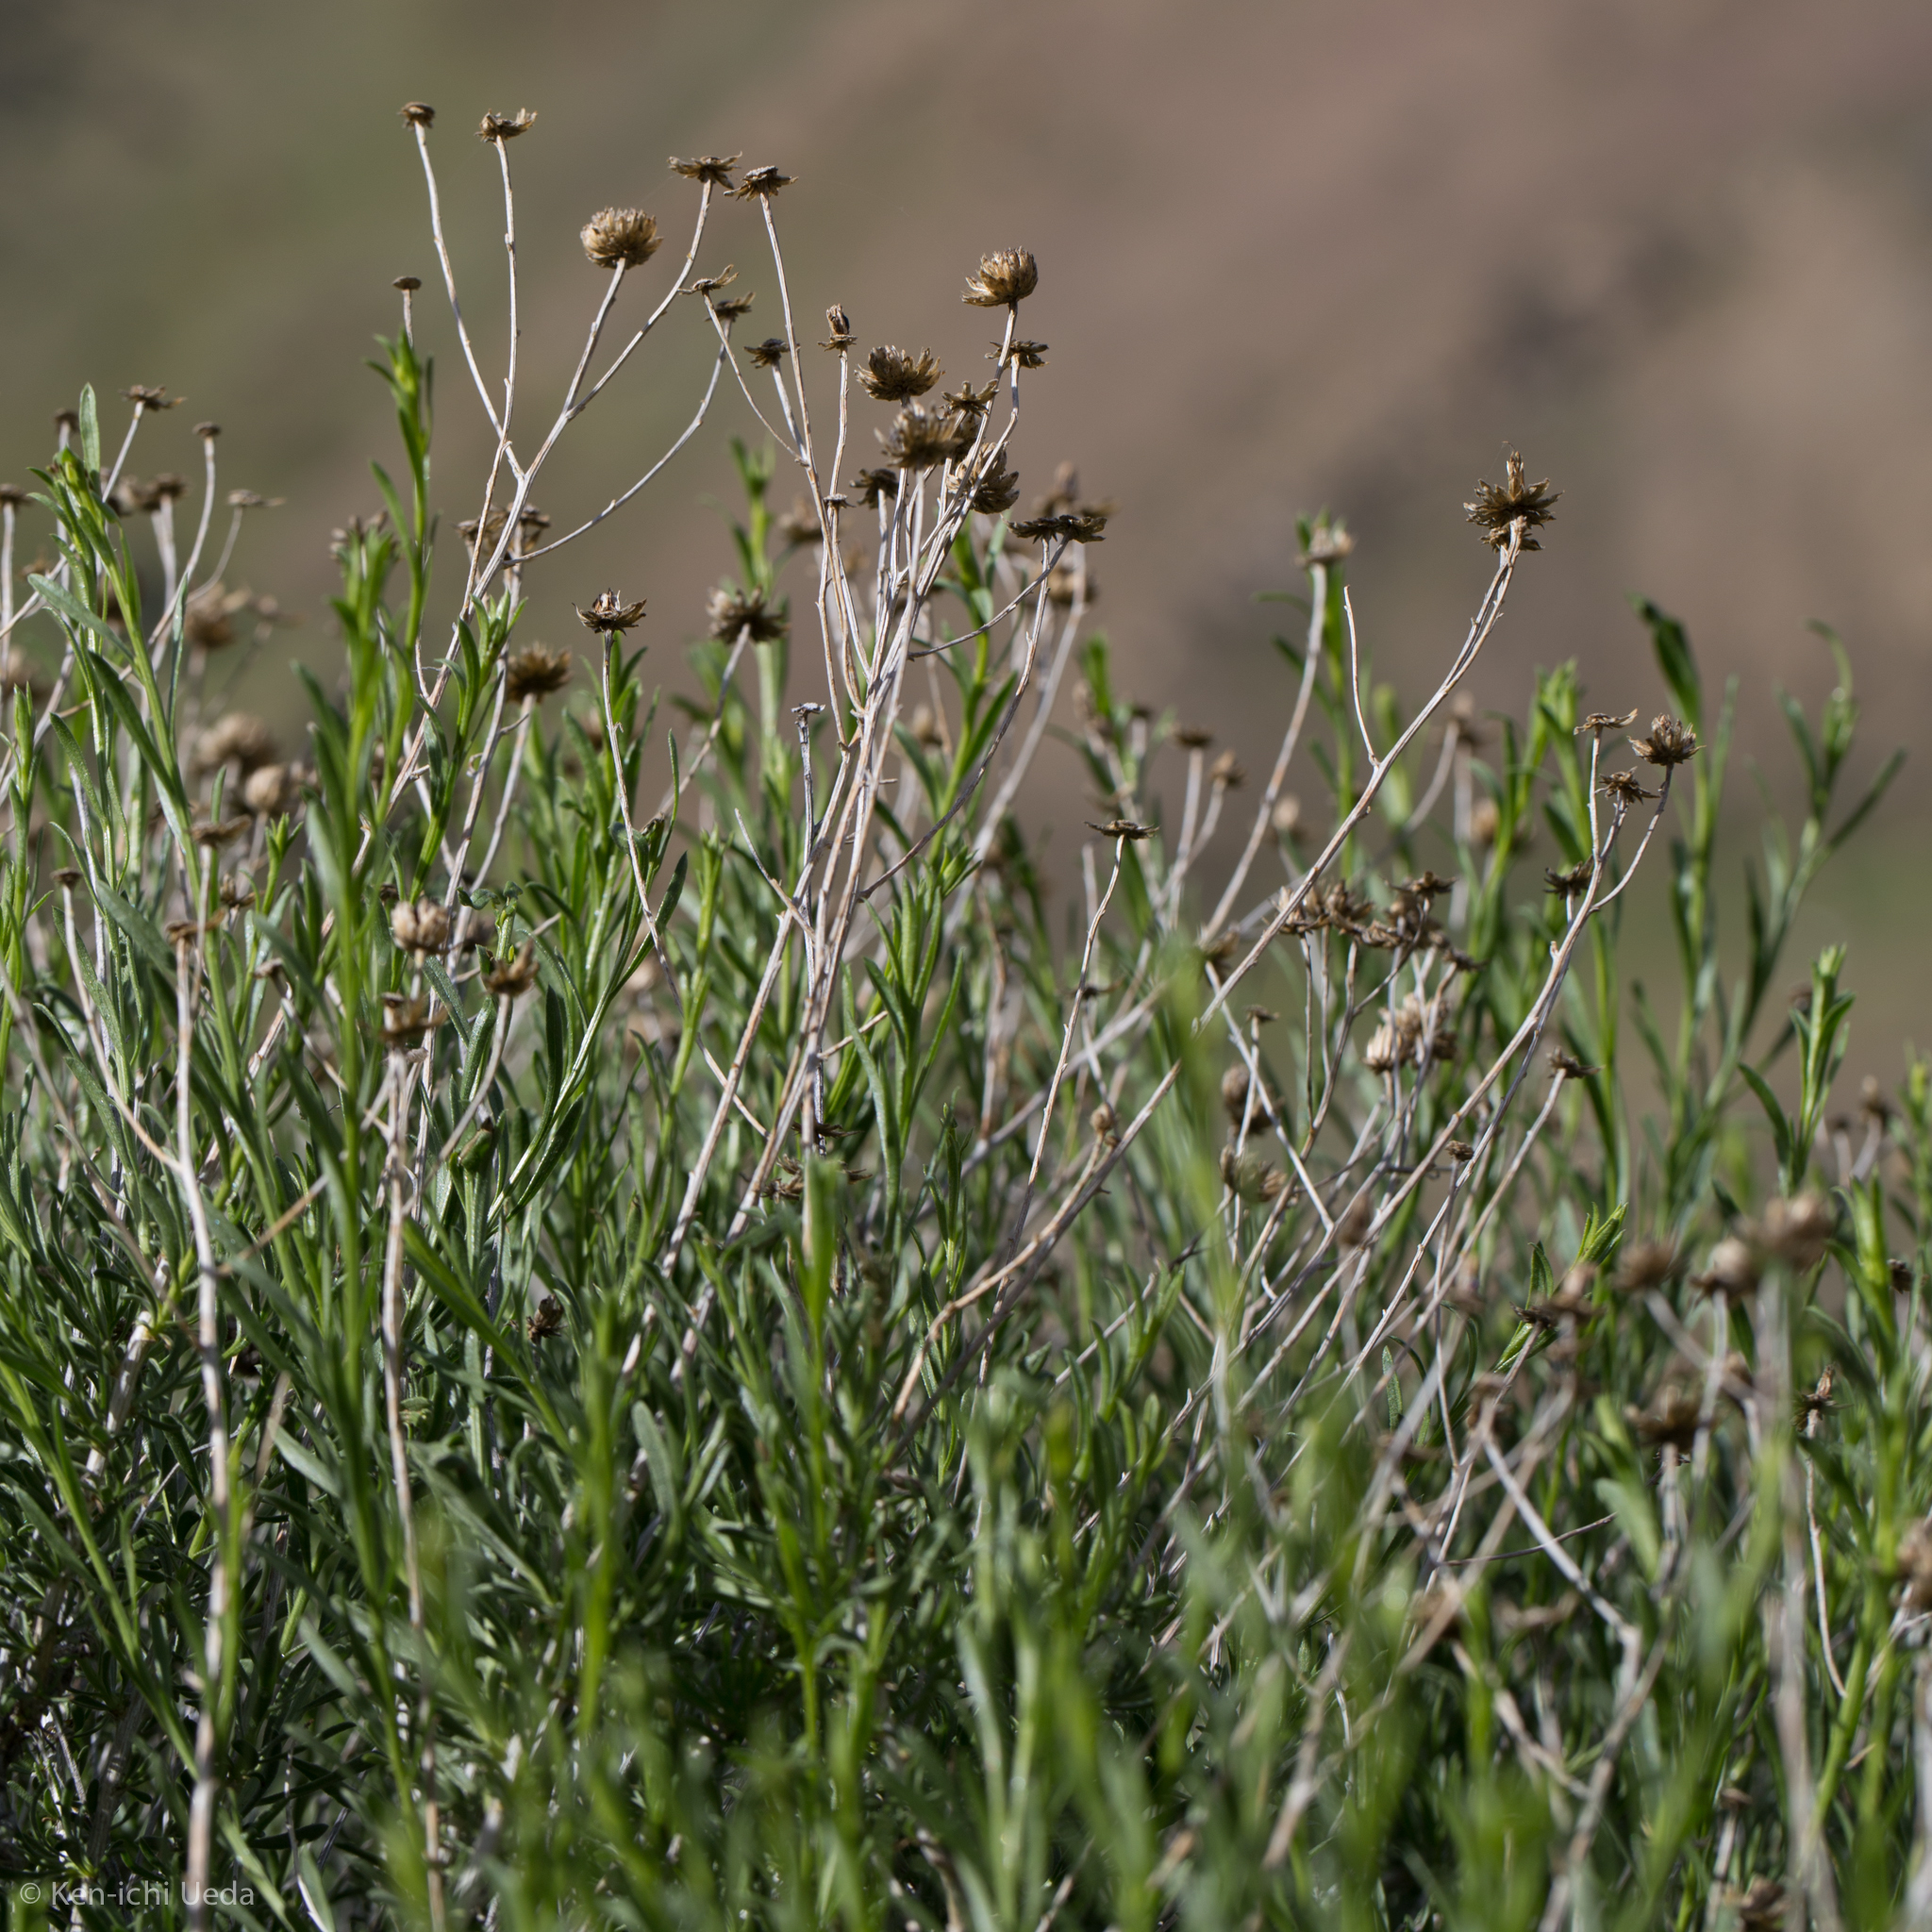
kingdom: Plantae
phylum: Tracheophyta
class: Magnoliopsida
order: Asterales
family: Asteraceae
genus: Eastwoodia
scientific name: Eastwoodia elegans
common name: Yellow-aster
